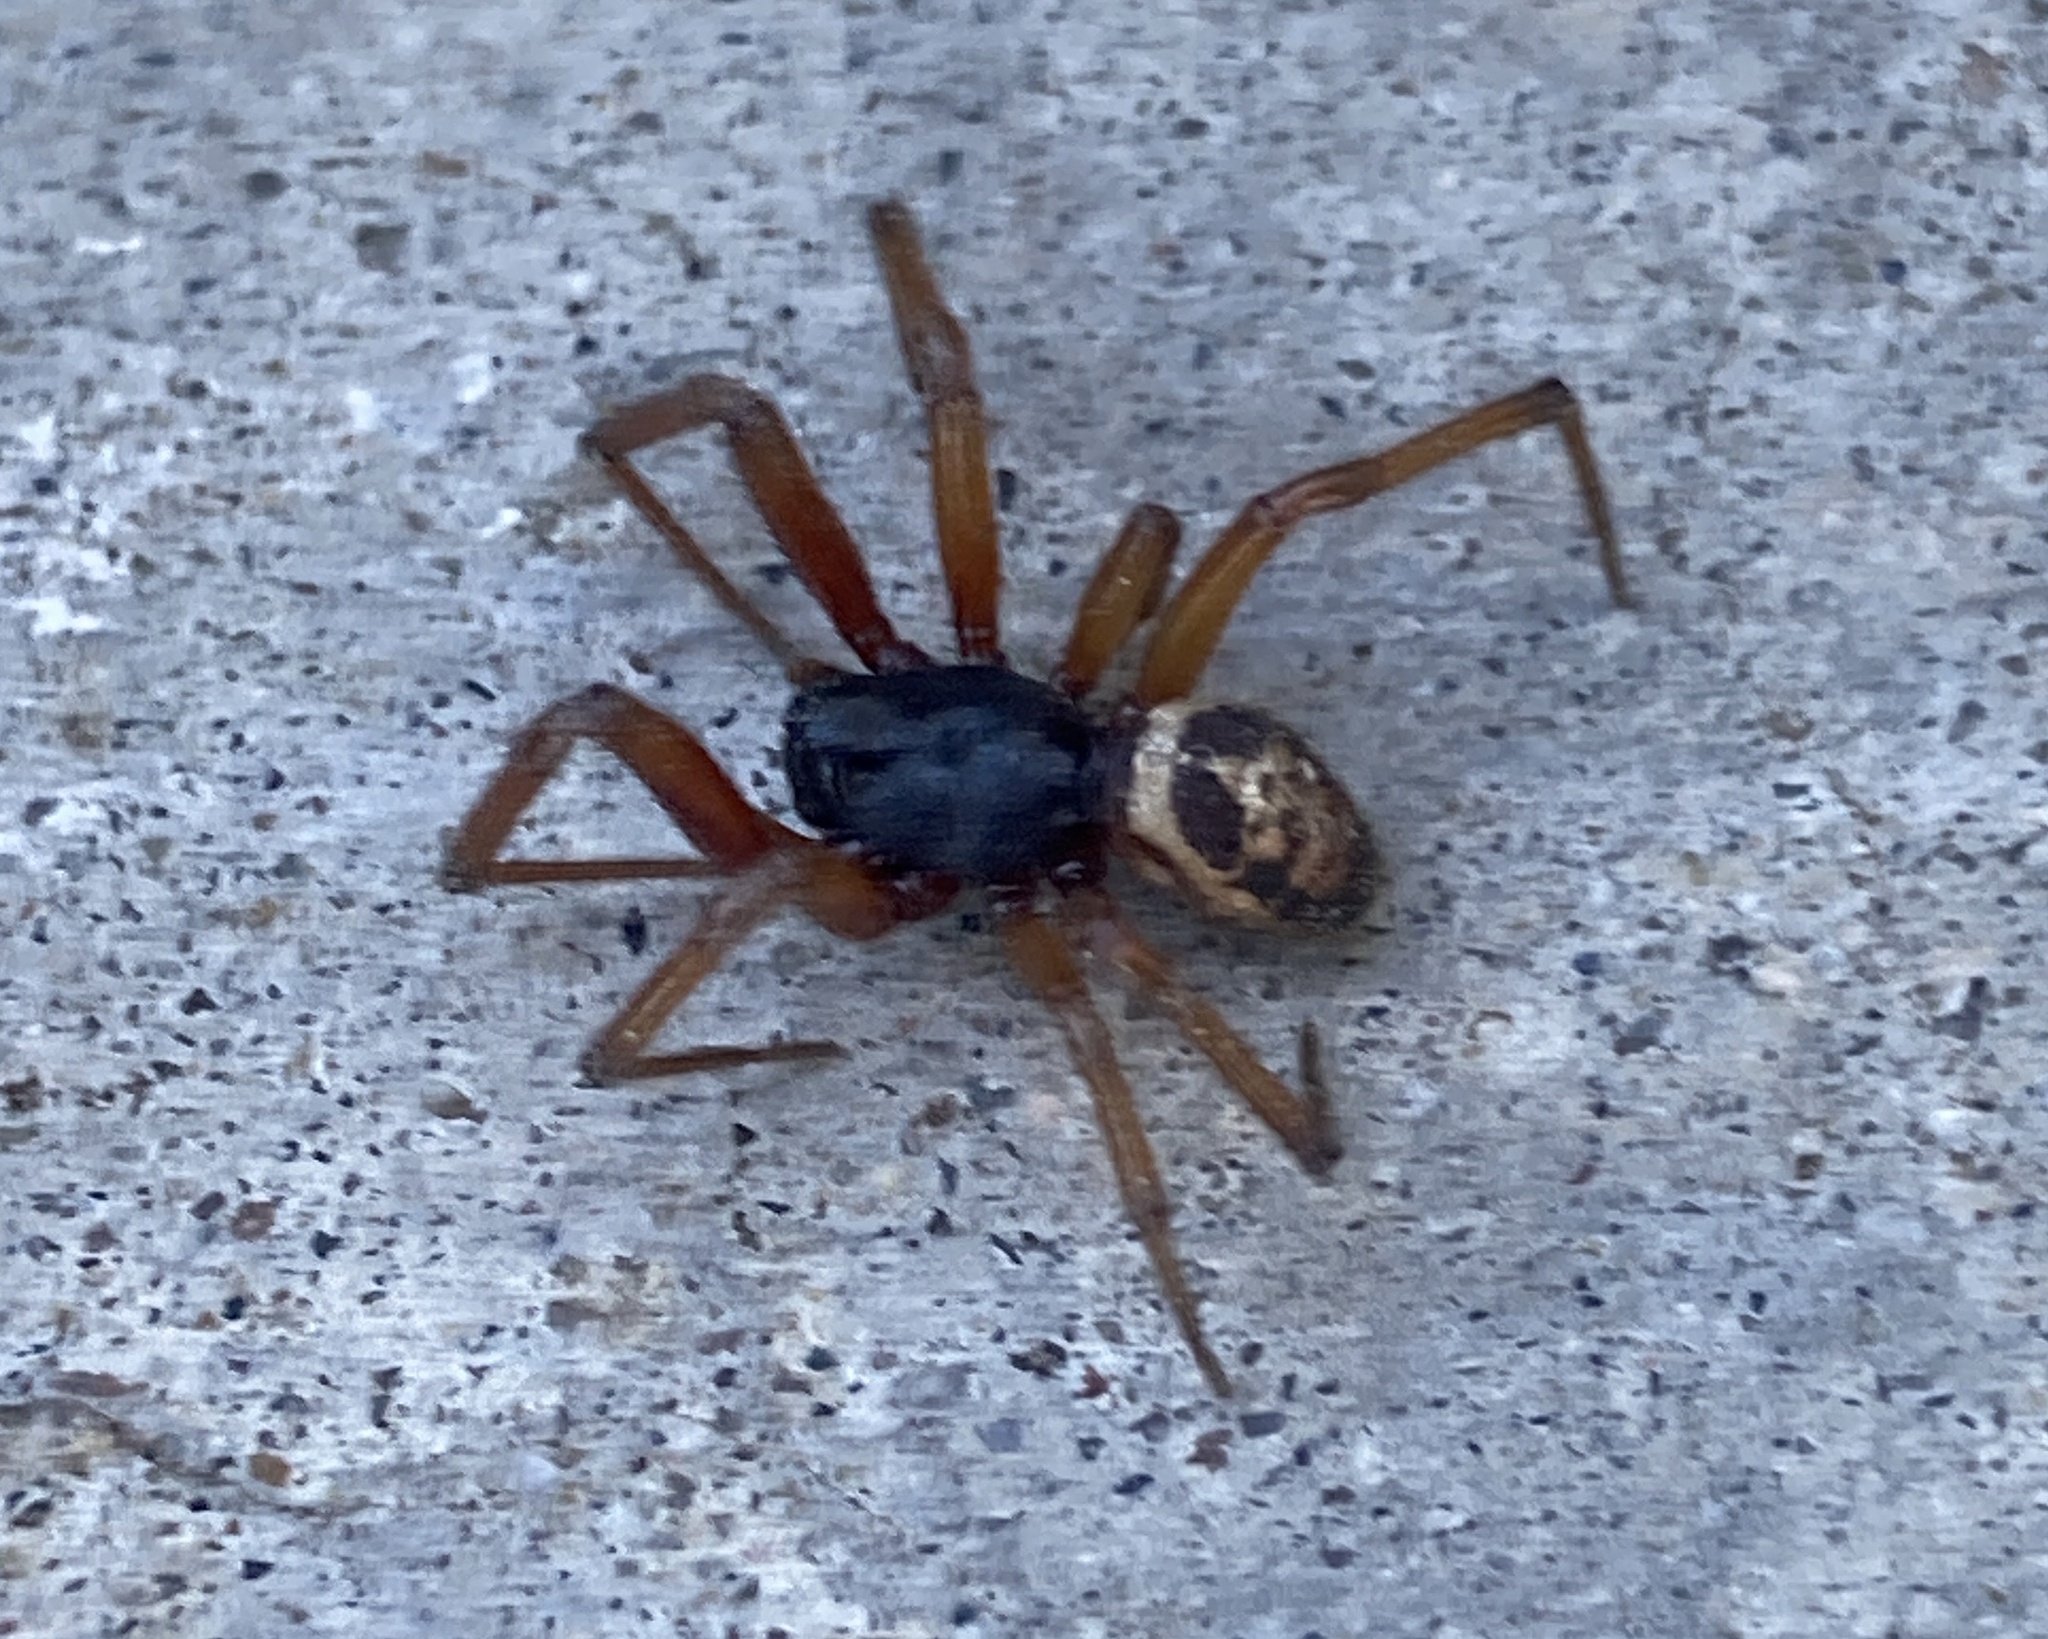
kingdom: Animalia
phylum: Arthropoda
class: Arachnida
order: Araneae
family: Theridiidae
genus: Steatoda
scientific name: Steatoda nobilis
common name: Cobweb weaver
